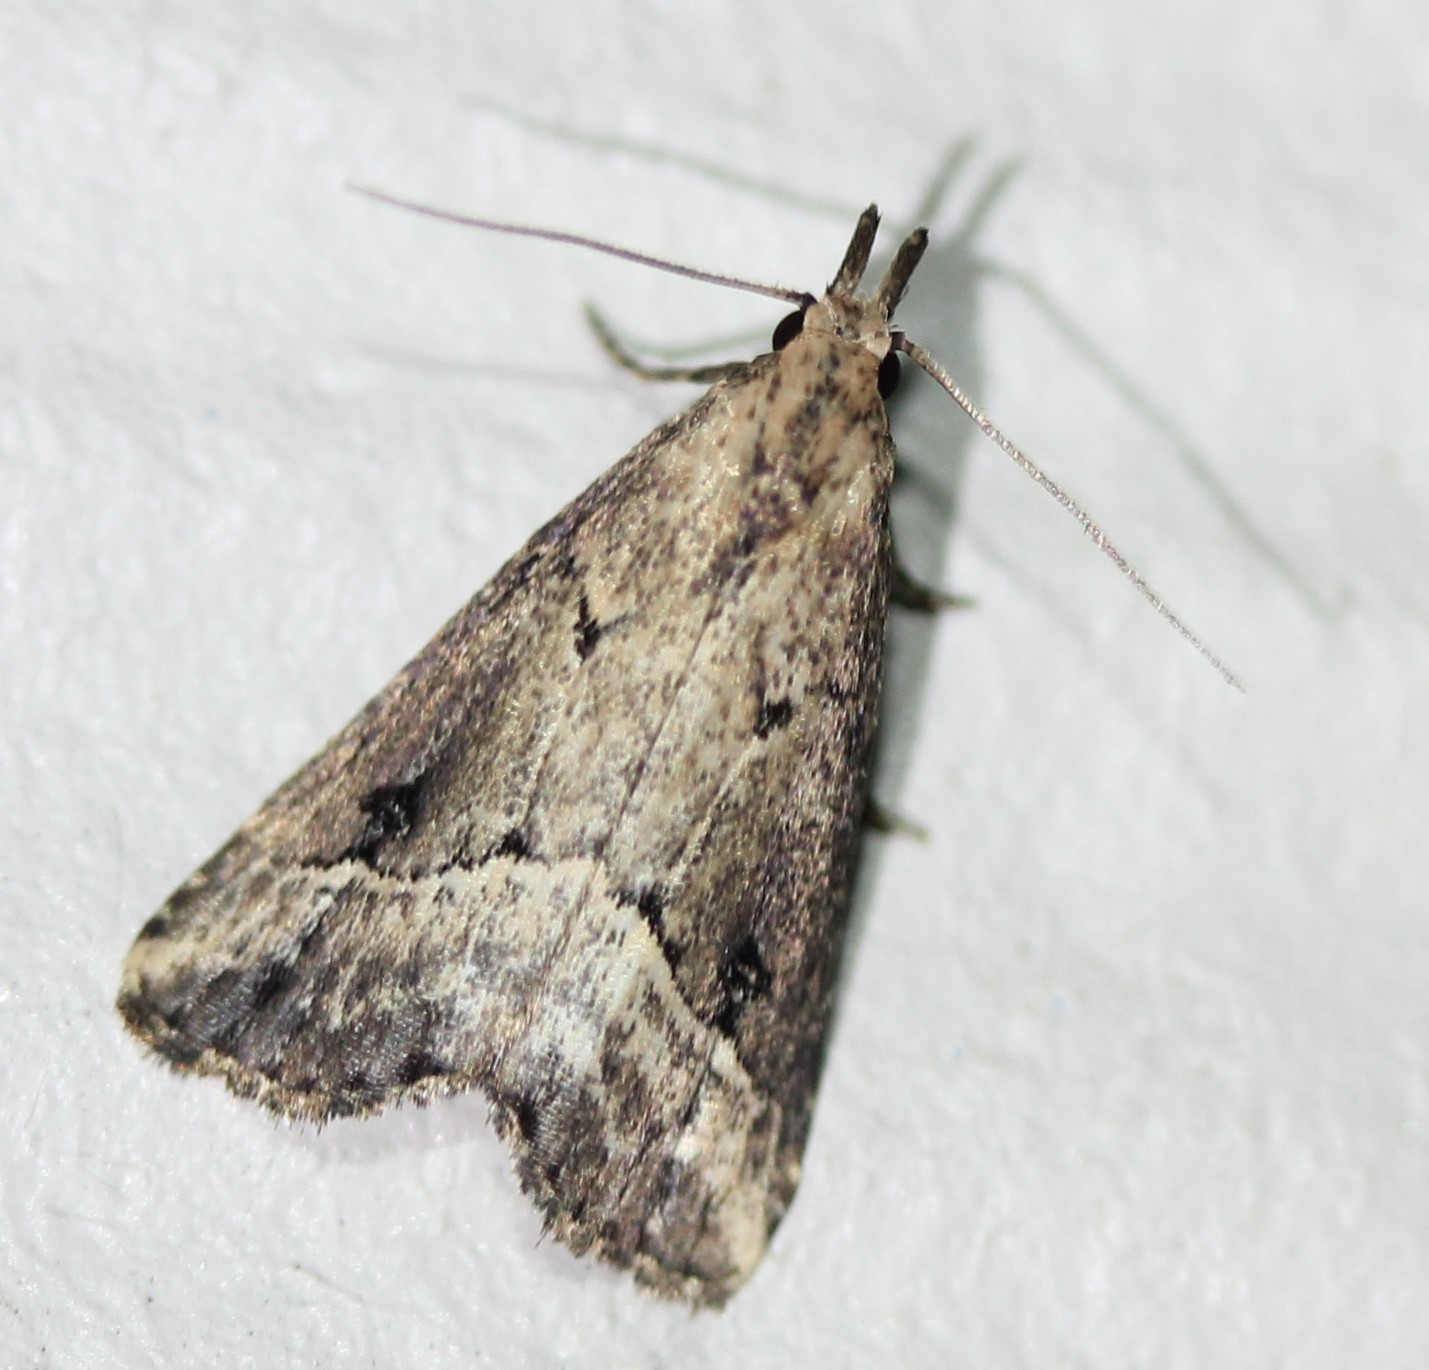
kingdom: Animalia
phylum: Arthropoda
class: Insecta
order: Lepidoptera
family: Erebidae
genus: Schrankia
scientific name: Schrankia
